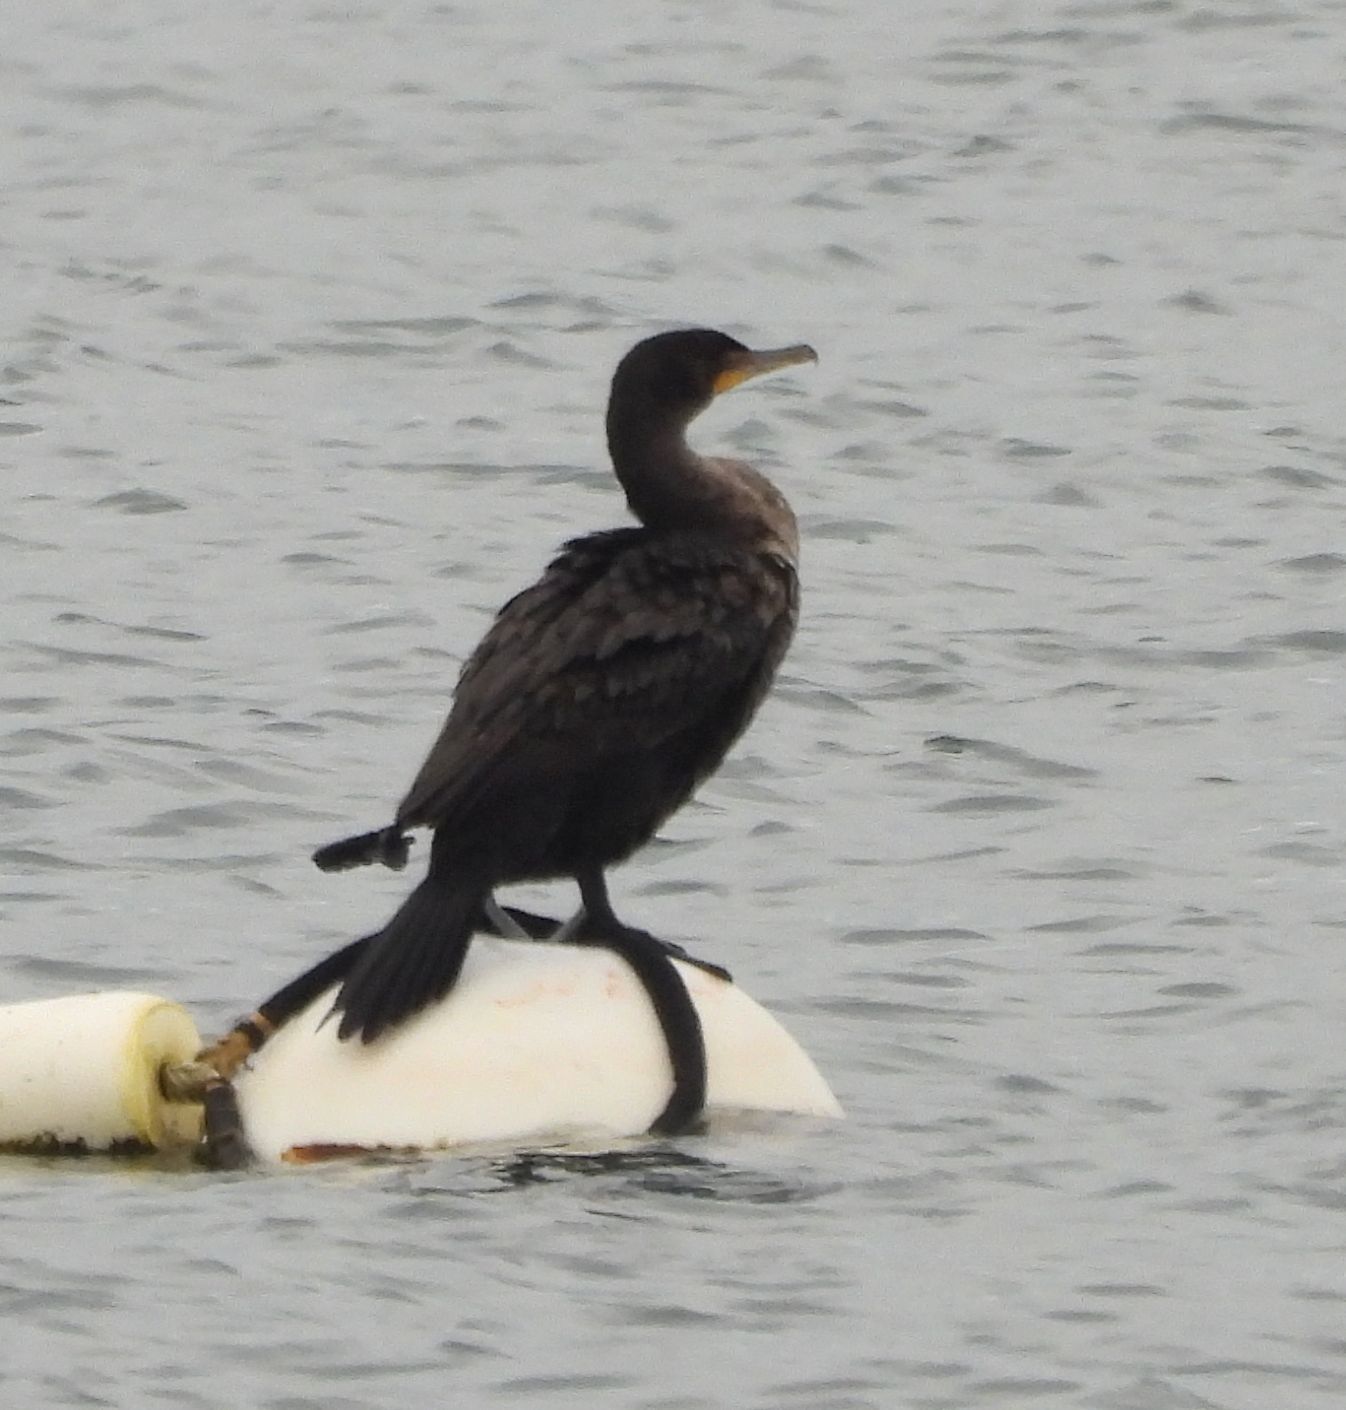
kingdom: Animalia
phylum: Chordata
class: Aves
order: Suliformes
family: Phalacrocoracidae
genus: Phalacrocorax
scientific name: Phalacrocorax auritus
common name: Double-crested cormorant
